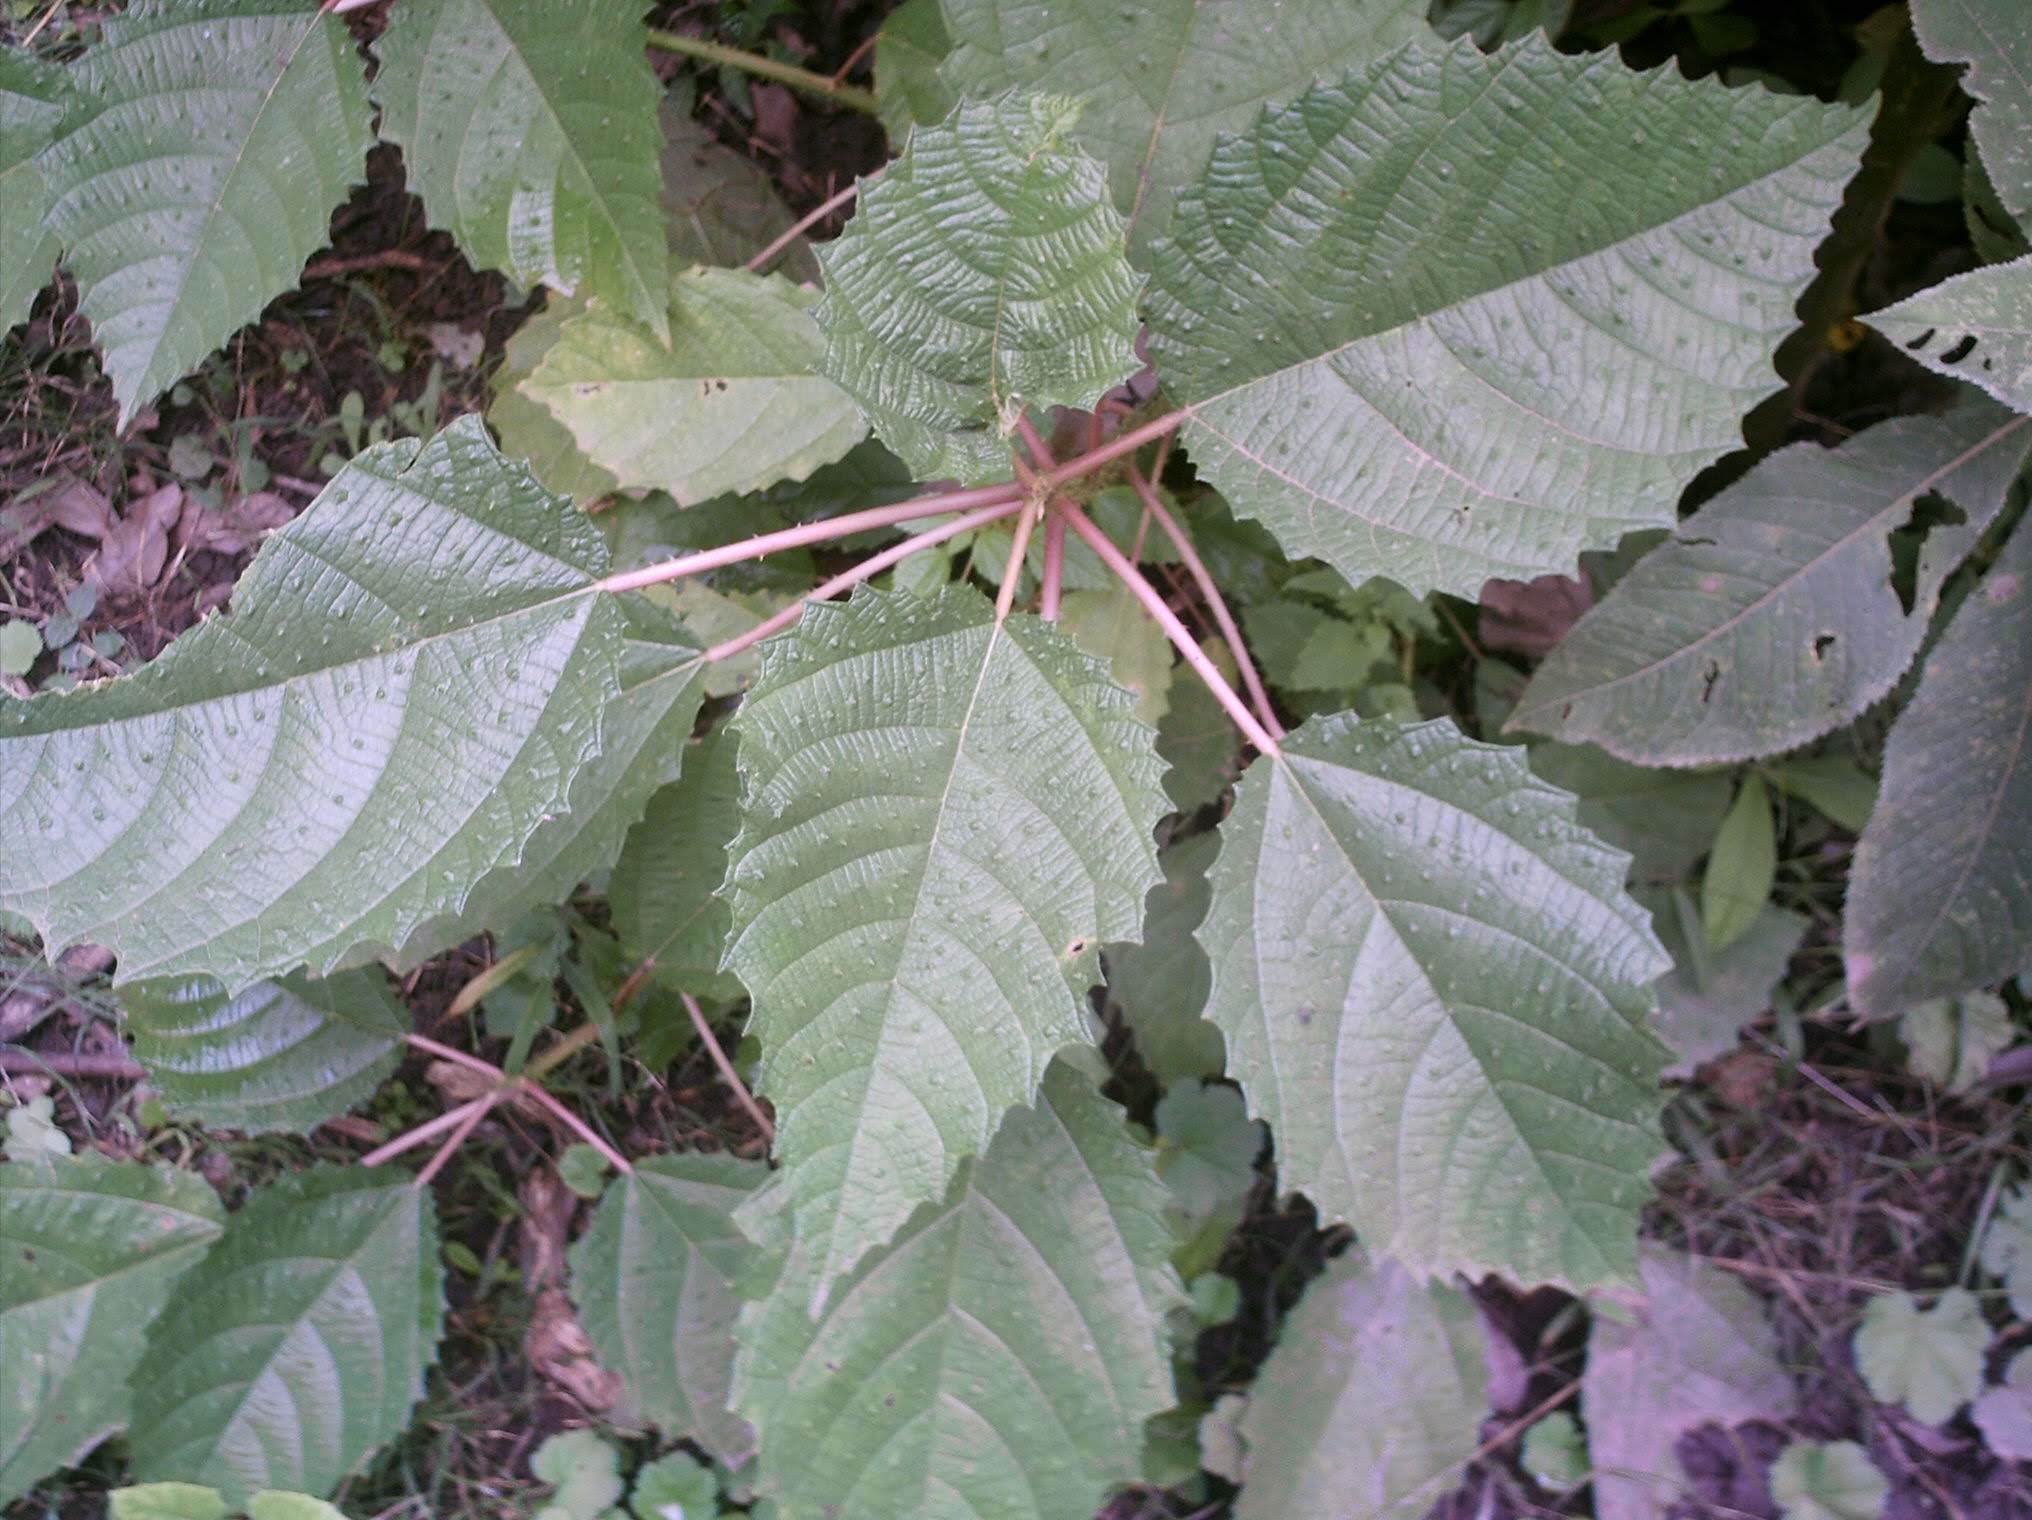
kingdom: Plantae
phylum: Tracheophyta
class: Magnoliopsida
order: Rosales
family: Urticaceae
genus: Urera
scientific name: Urera baccifera
